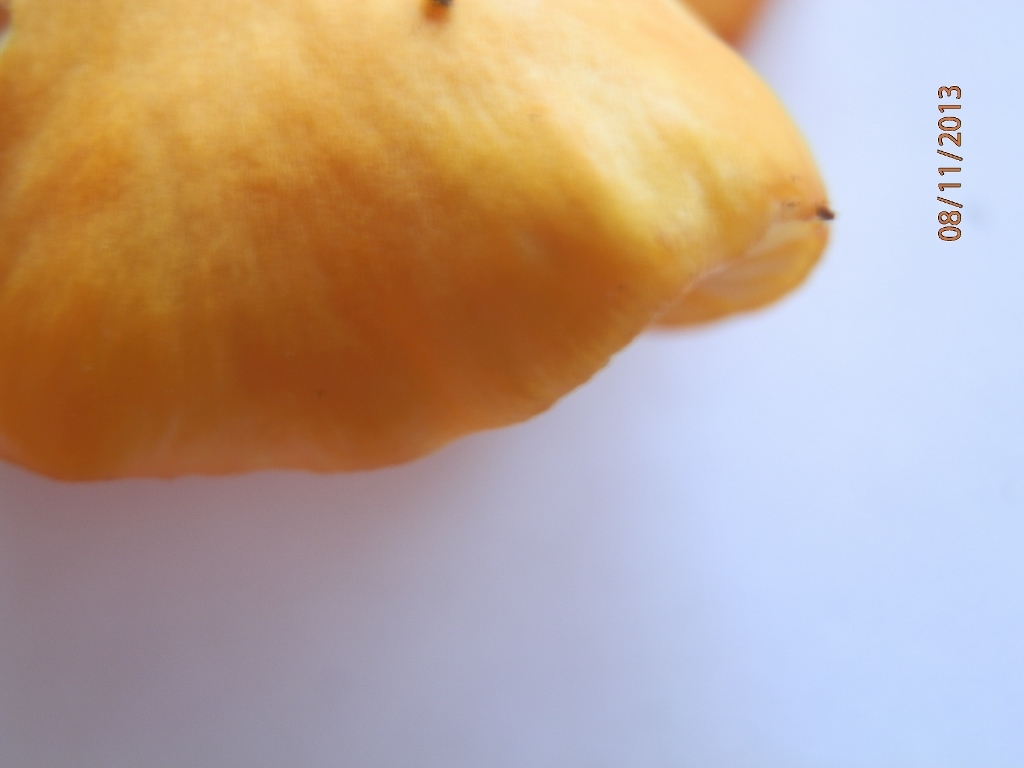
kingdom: Fungi
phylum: Basidiomycota
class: Agaricomycetes
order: Agaricales
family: Hygrophoraceae
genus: Hygrocybe
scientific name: Hygrocybe flavescens
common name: Golden waxy cap
